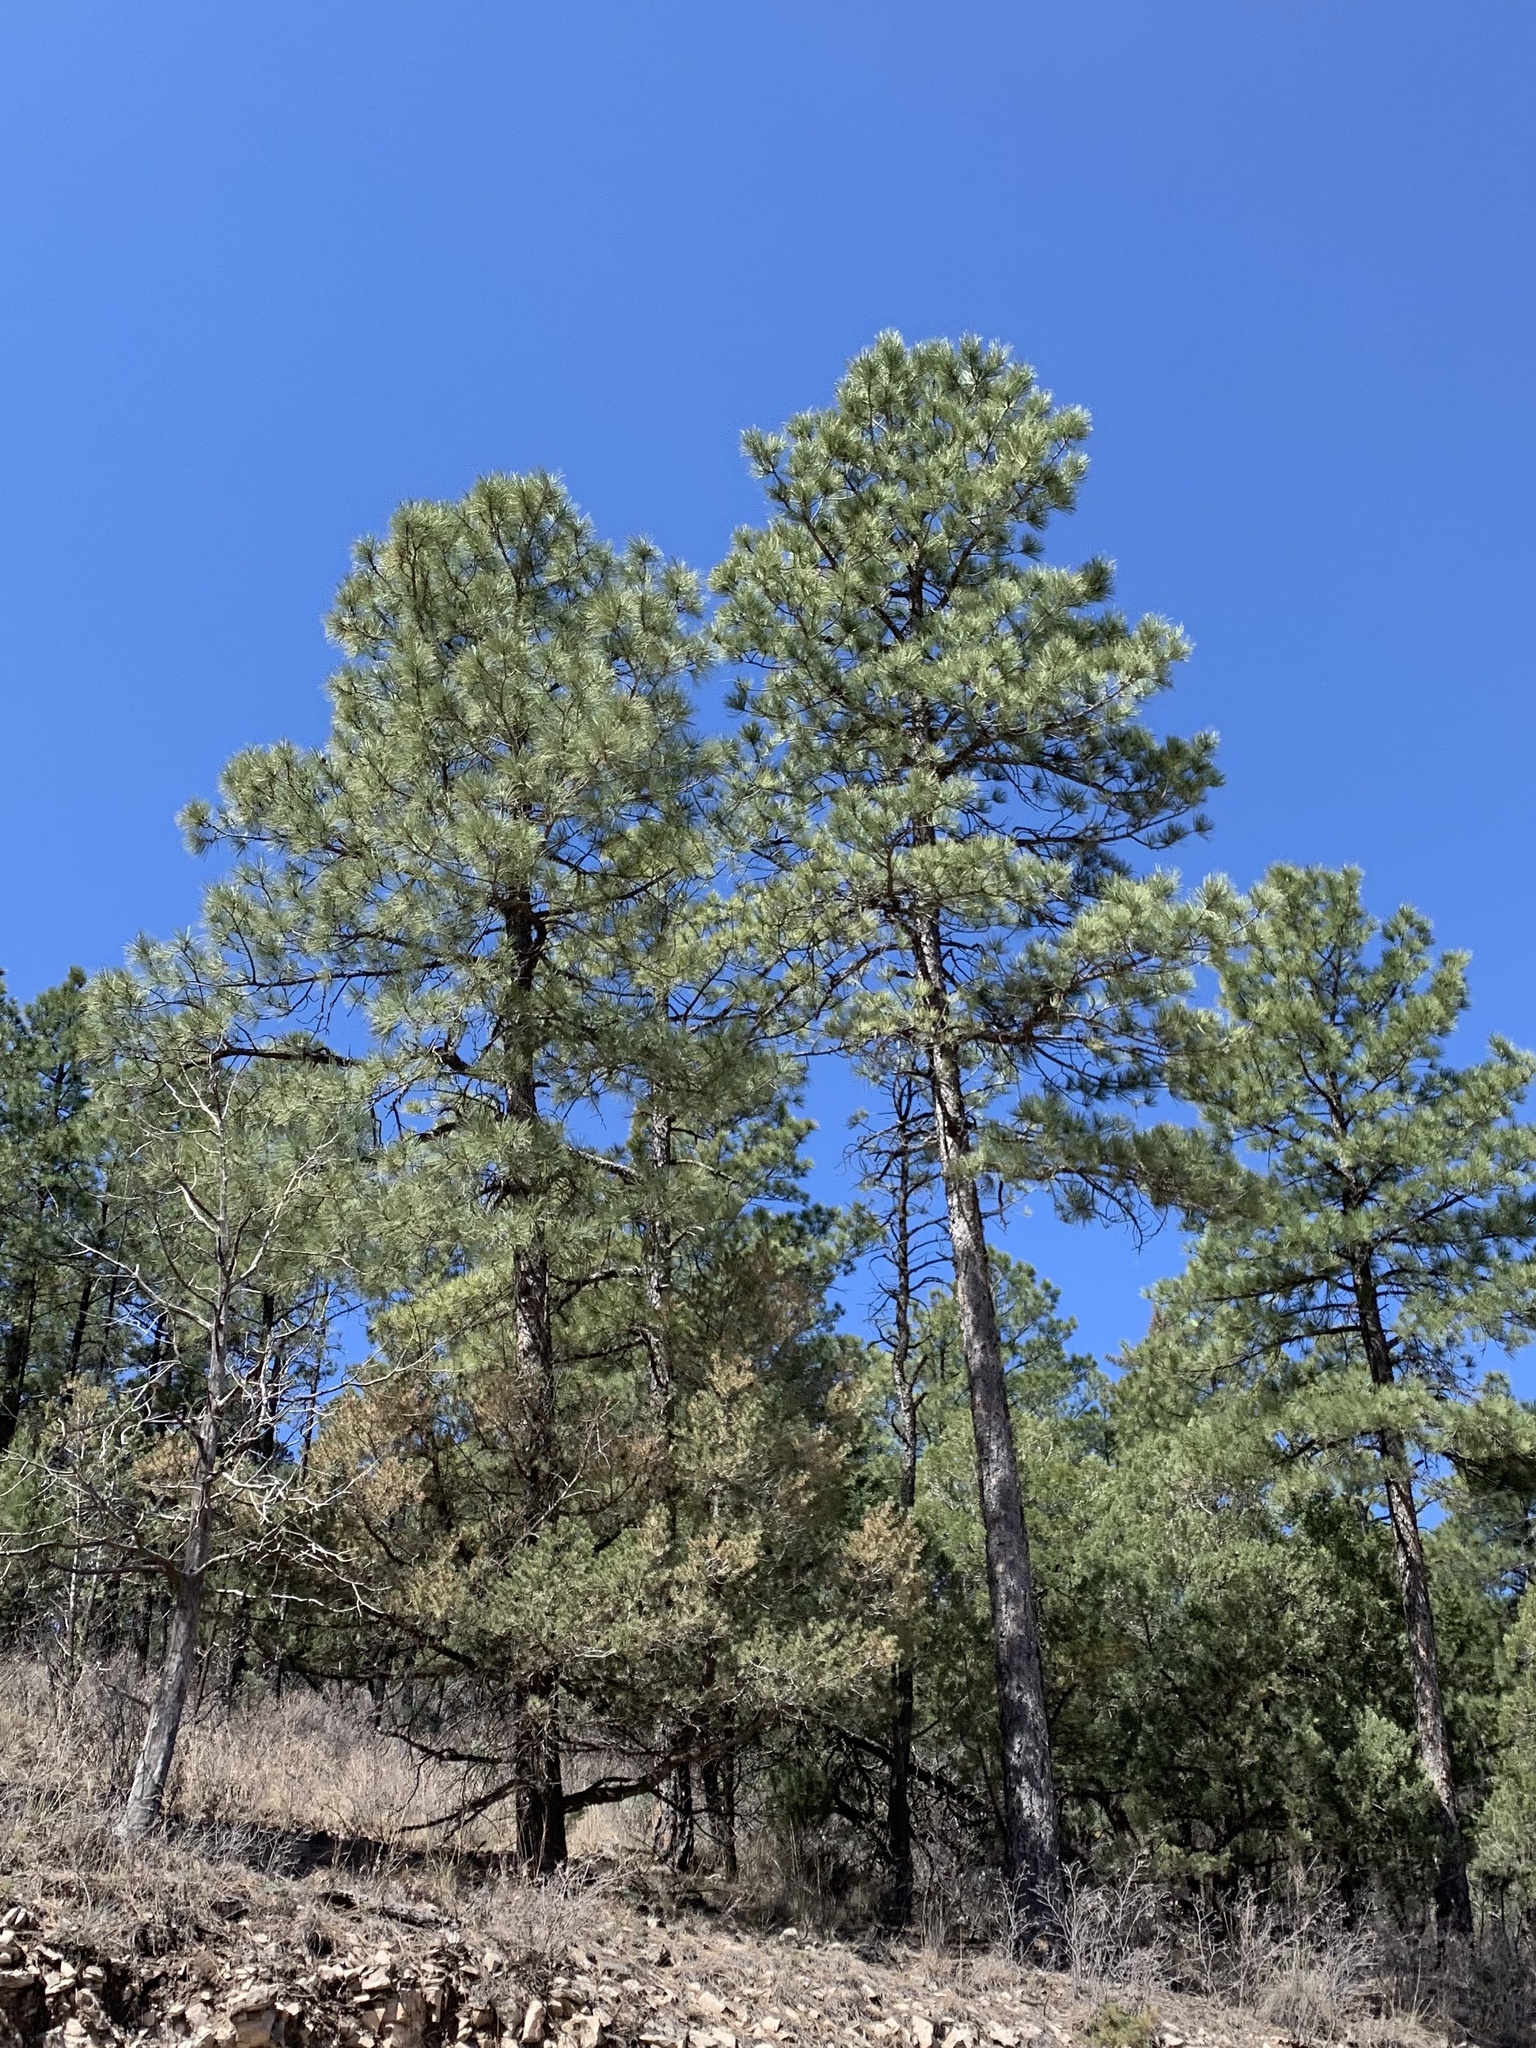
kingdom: Plantae
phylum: Tracheophyta
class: Pinopsida
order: Pinales
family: Pinaceae
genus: Pinus
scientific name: Pinus ponderosa
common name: Western yellow-pine
